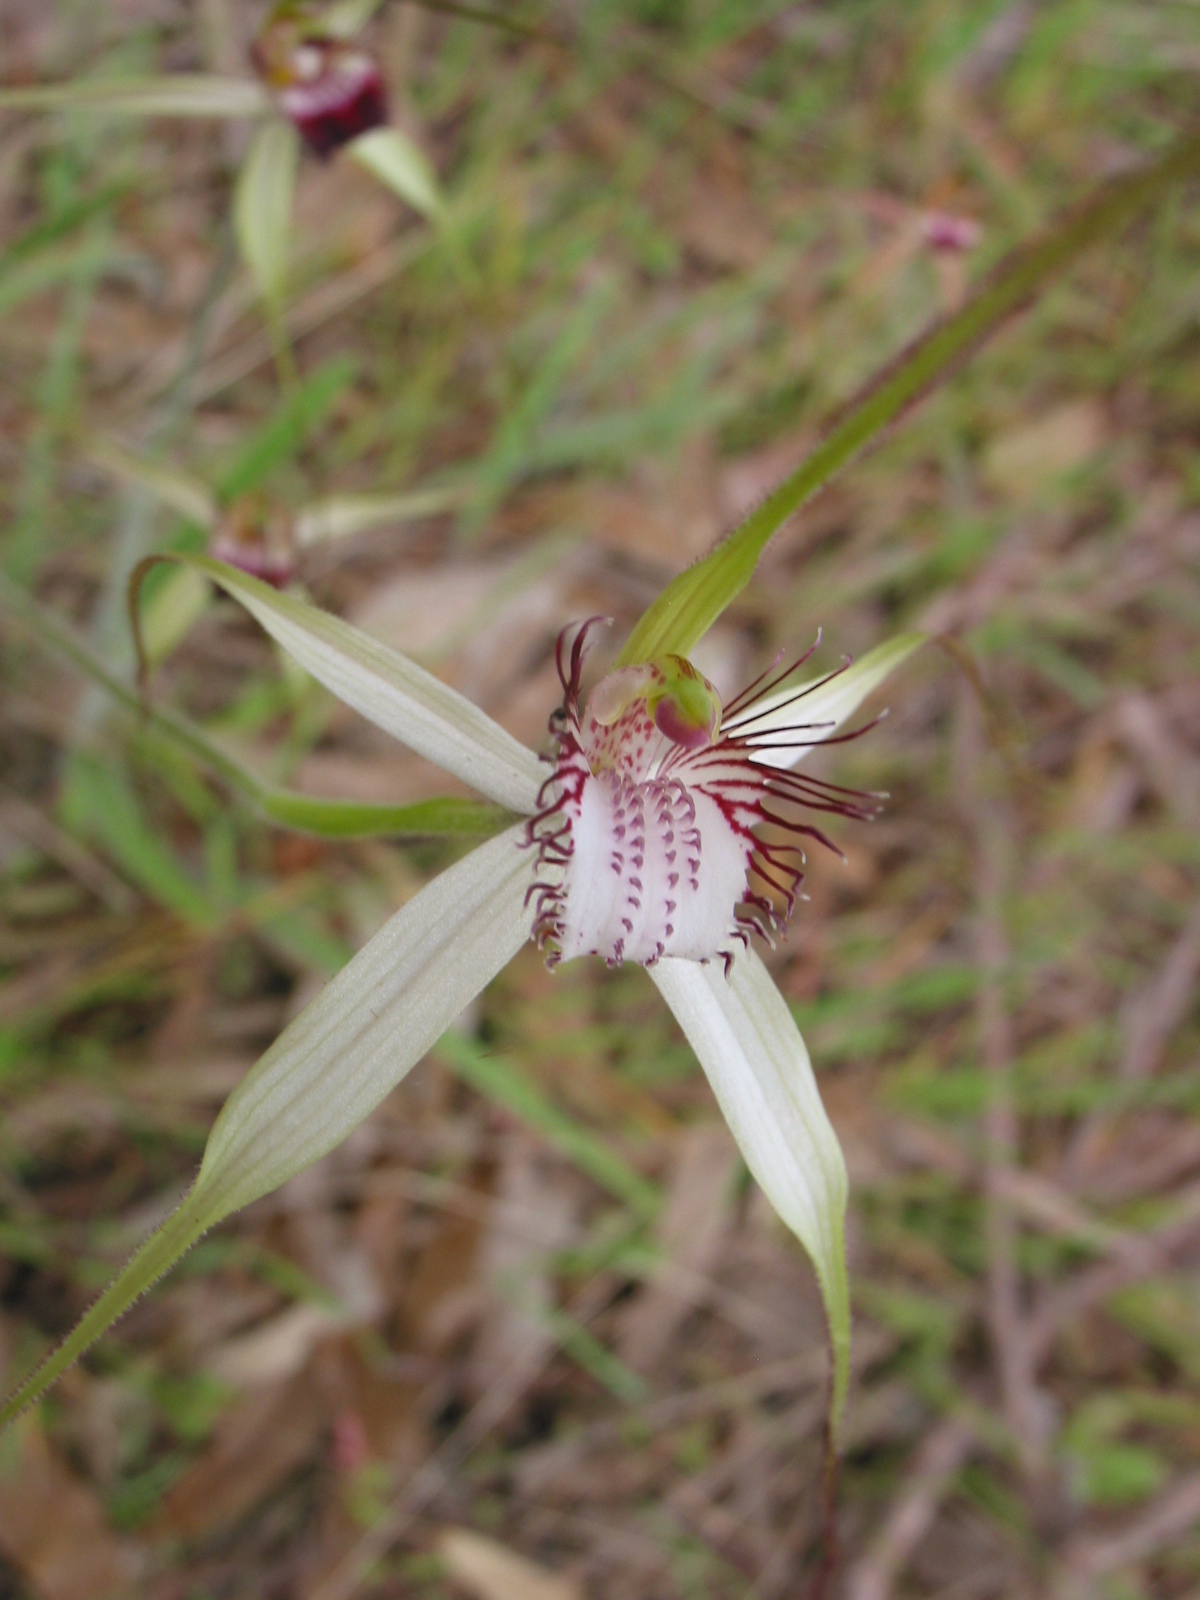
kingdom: Plantae
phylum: Tracheophyta
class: Liliopsida
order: Asparagales
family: Orchidaceae
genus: Caladenia
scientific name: Caladenia longicauda
